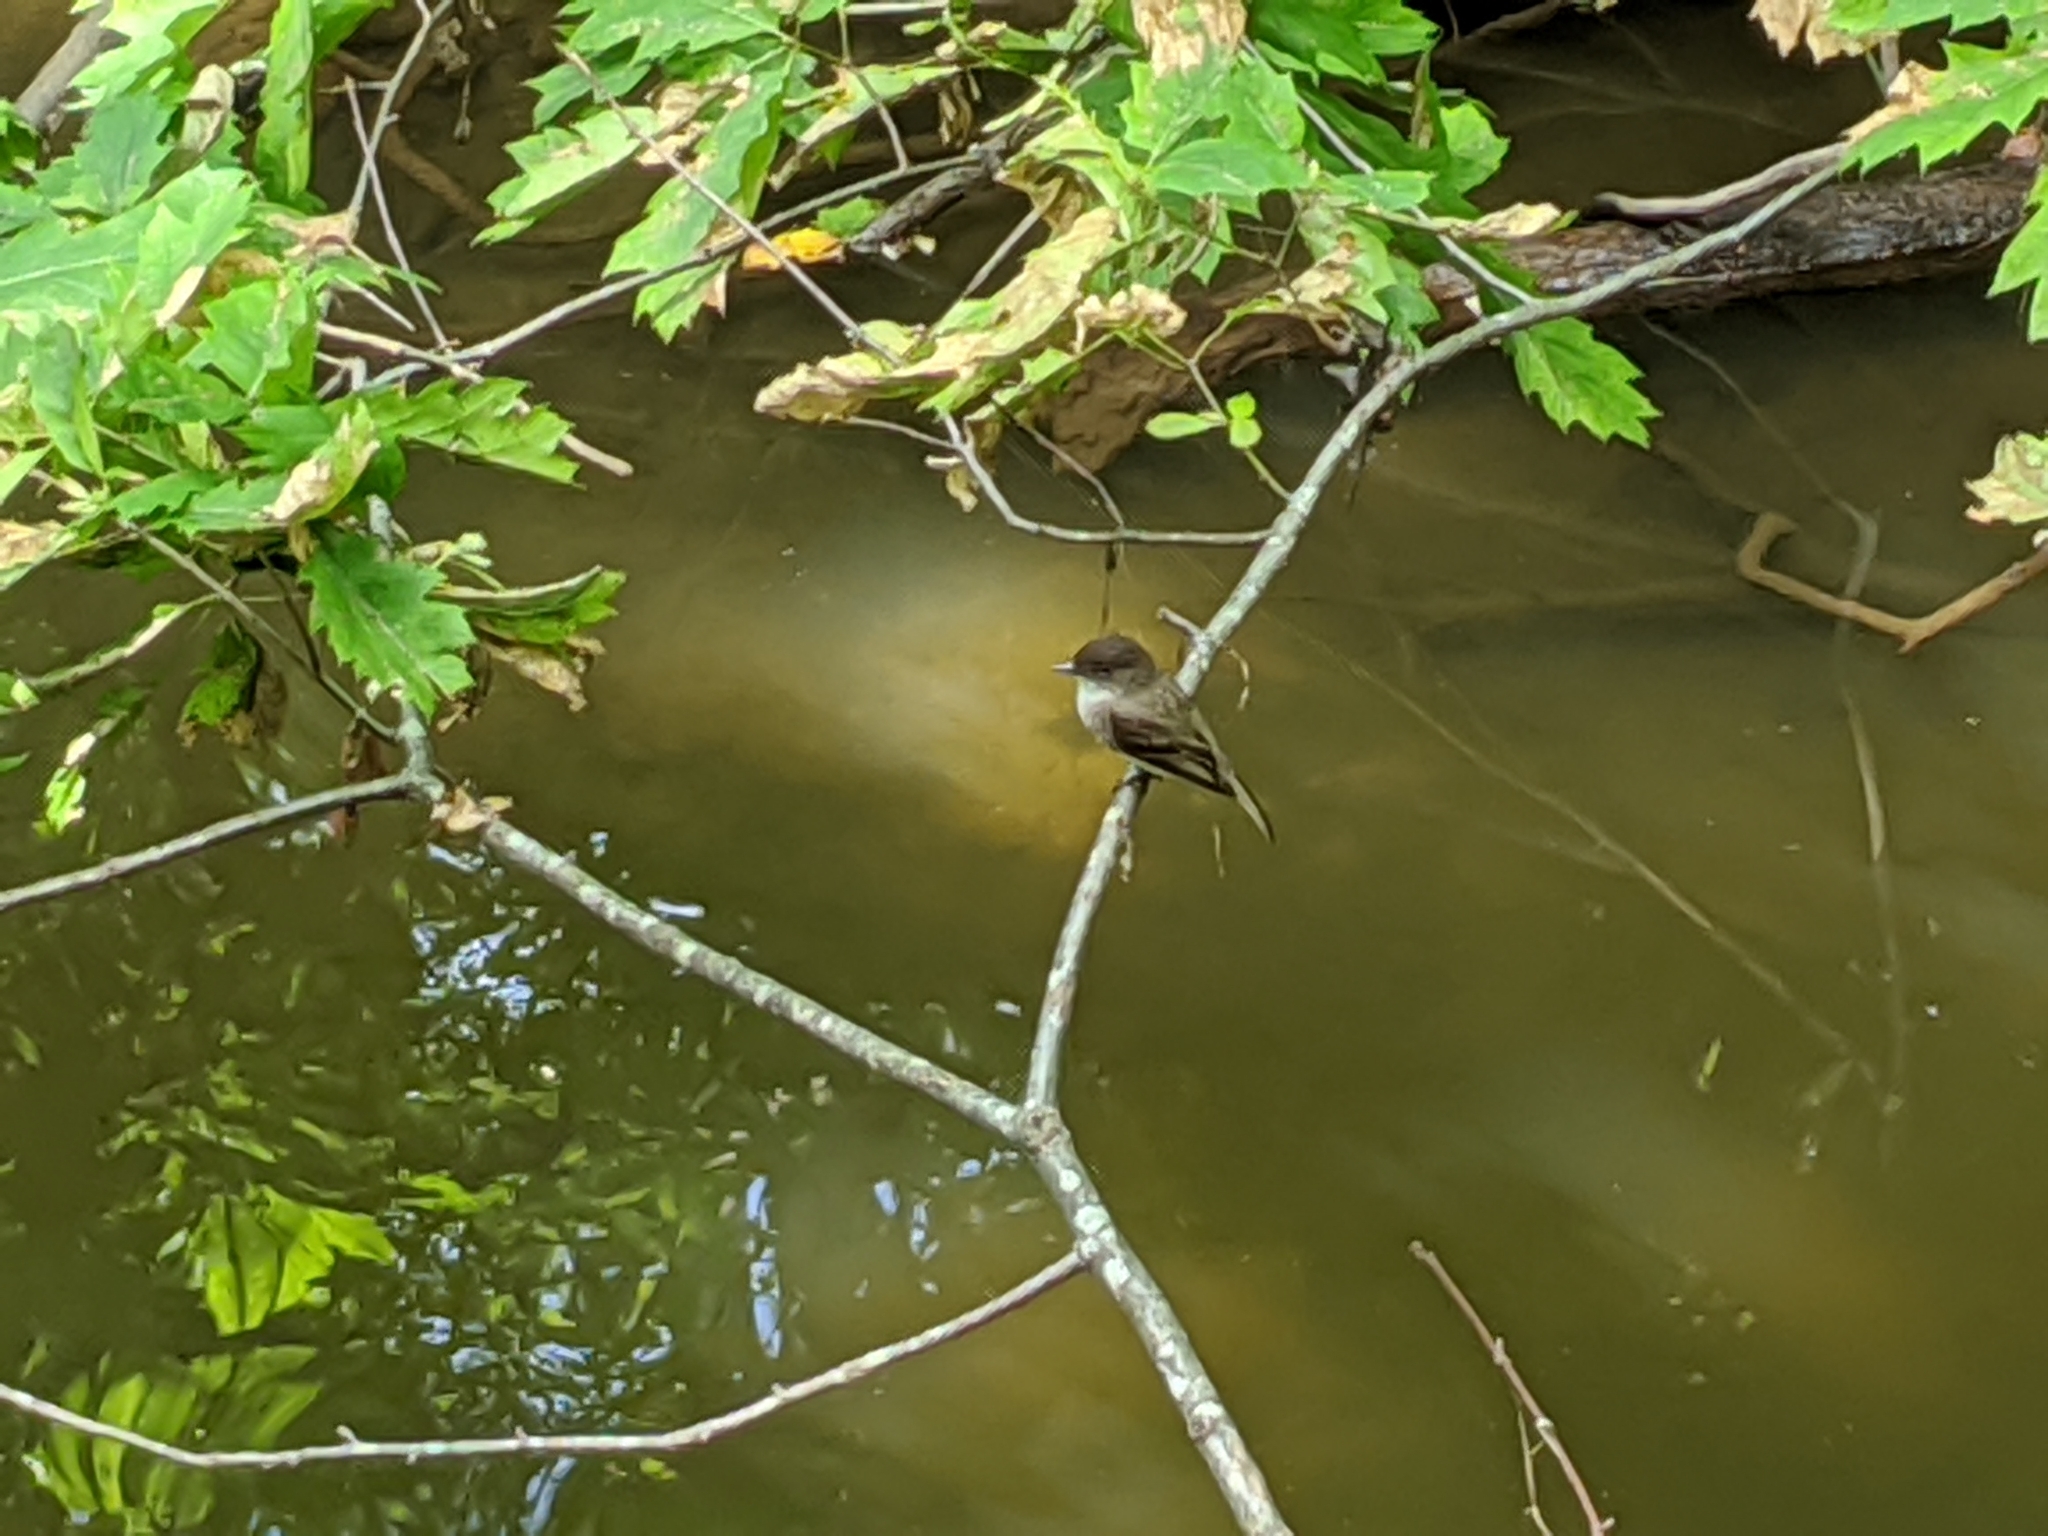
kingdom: Animalia
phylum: Chordata
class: Aves
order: Passeriformes
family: Tyrannidae
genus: Sayornis
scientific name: Sayornis phoebe
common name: Eastern phoebe
